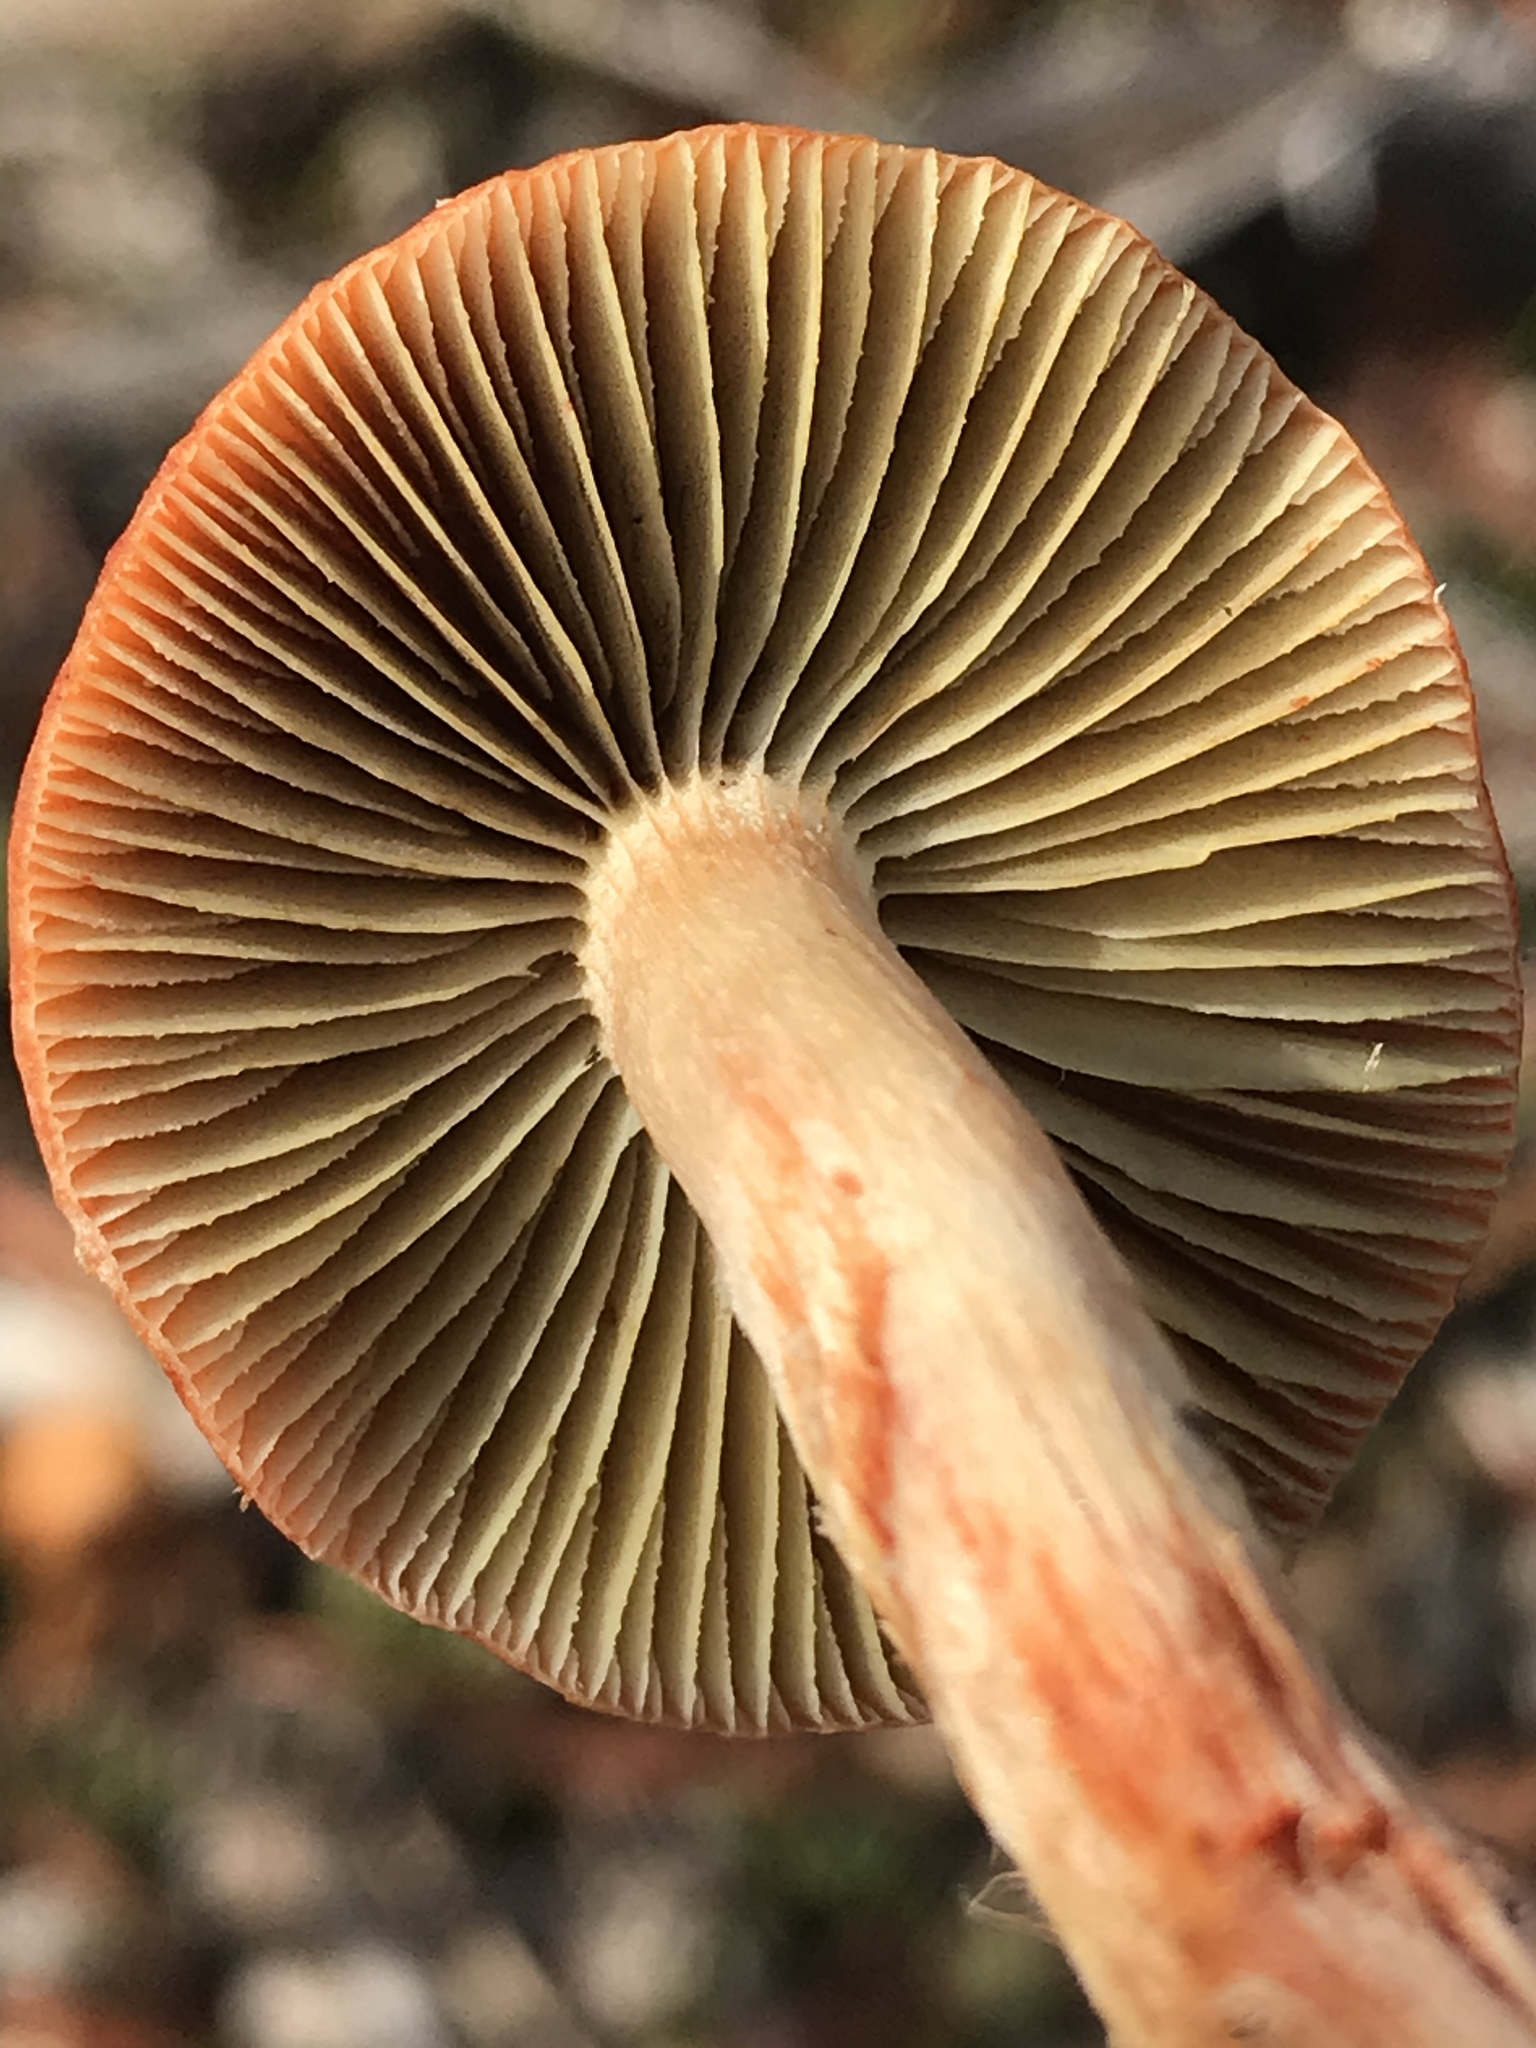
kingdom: Fungi
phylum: Basidiomycota
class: Agaricomycetes
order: Agaricales
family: Strophariaceae
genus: Leratiomyces
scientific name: Leratiomyces ceres
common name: Redlead roundhead
